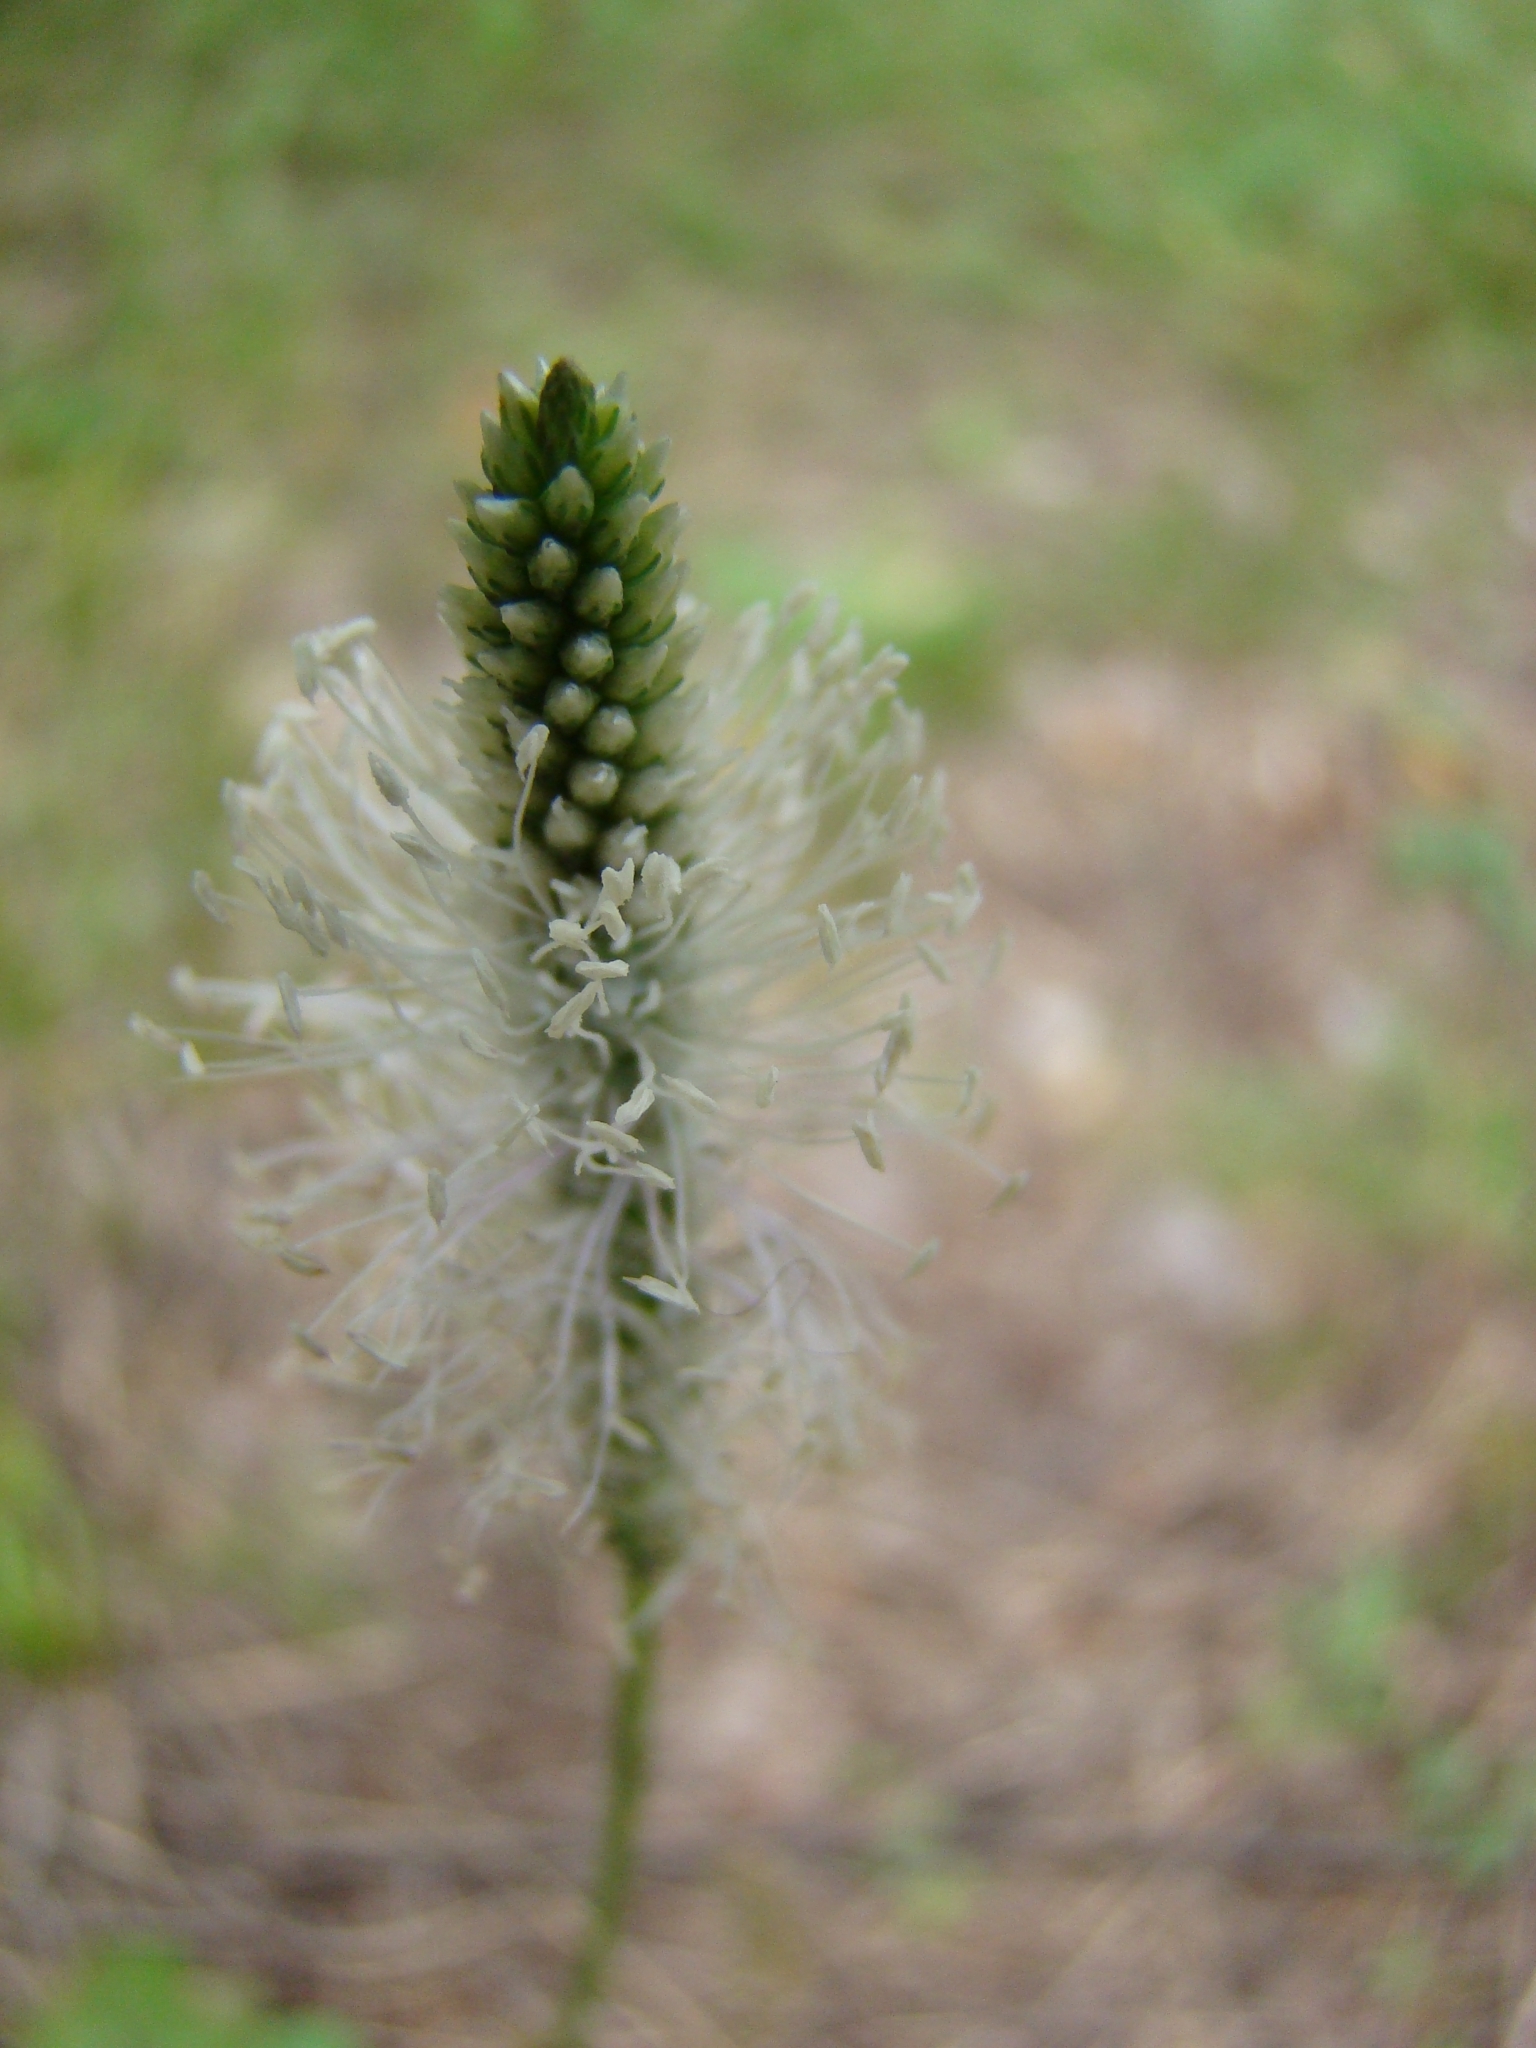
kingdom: Plantae
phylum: Tracheophyta
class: Magnoliopsida
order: Lamiales
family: Plantaginaceae
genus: Plantago
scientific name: Plantago media
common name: Hoary plantain
